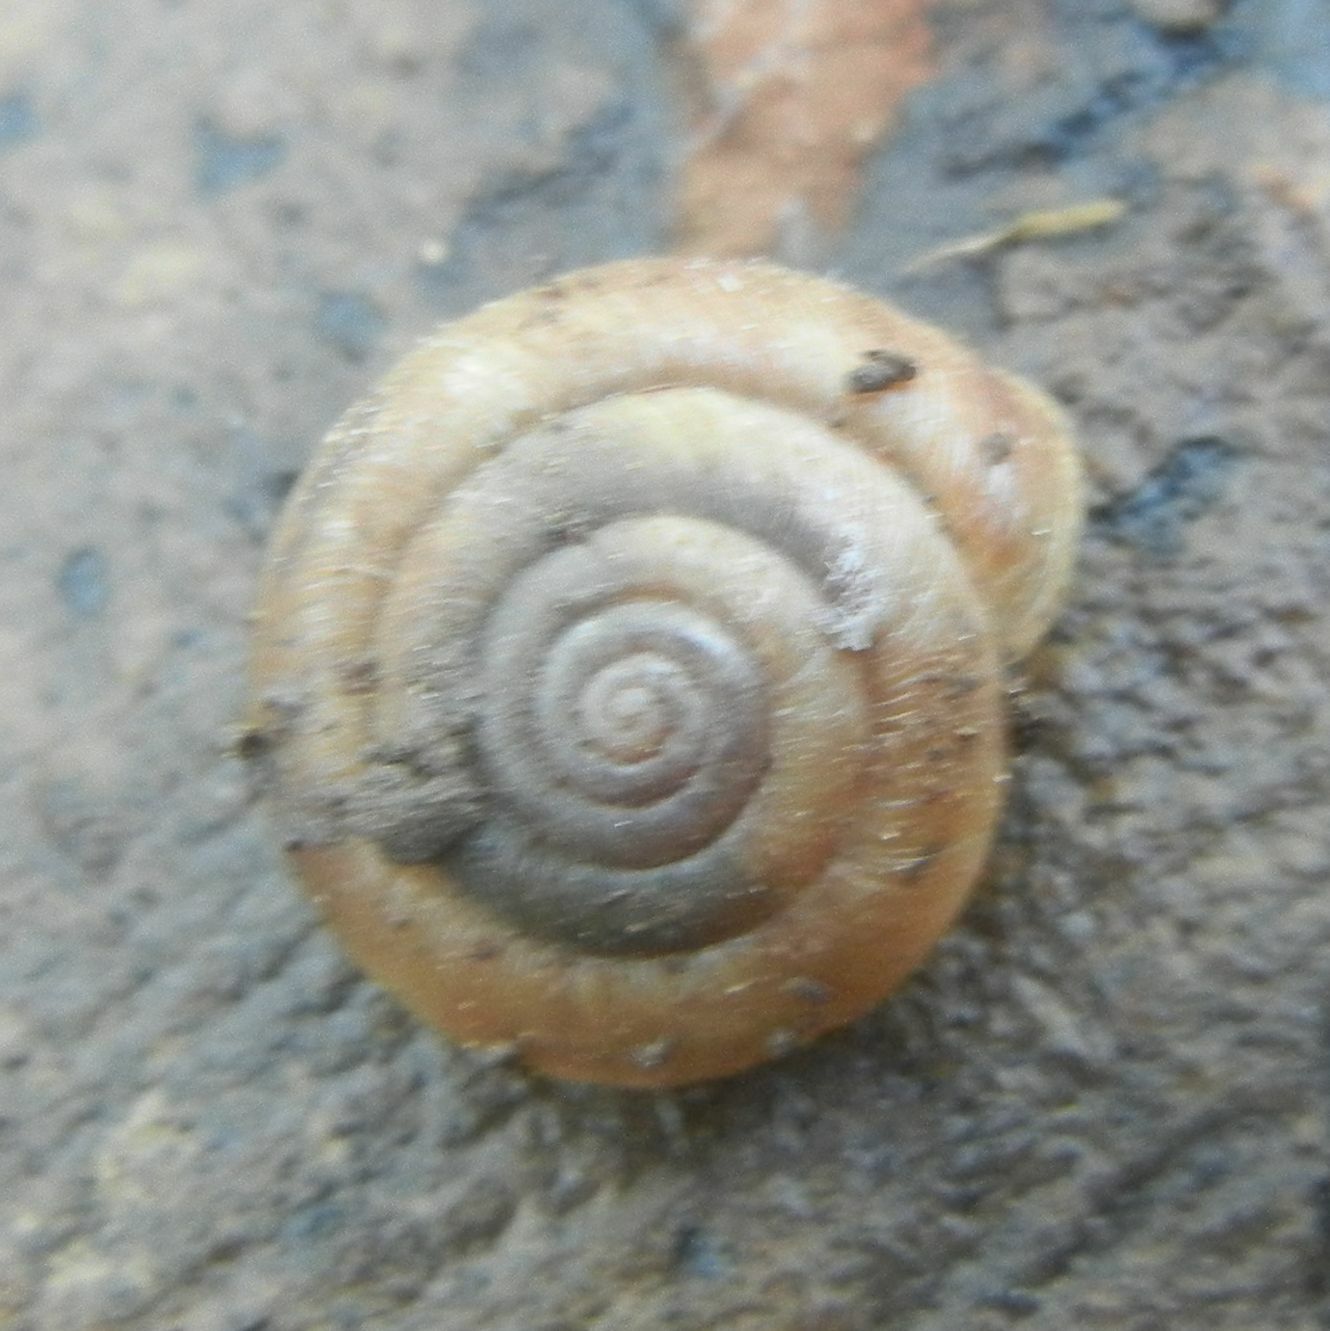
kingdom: Animalia
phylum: Mollusca
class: Gastropoda
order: Stylommatophora
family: Hygromiidae
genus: Trochulus
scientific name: Trochulus striolatus
